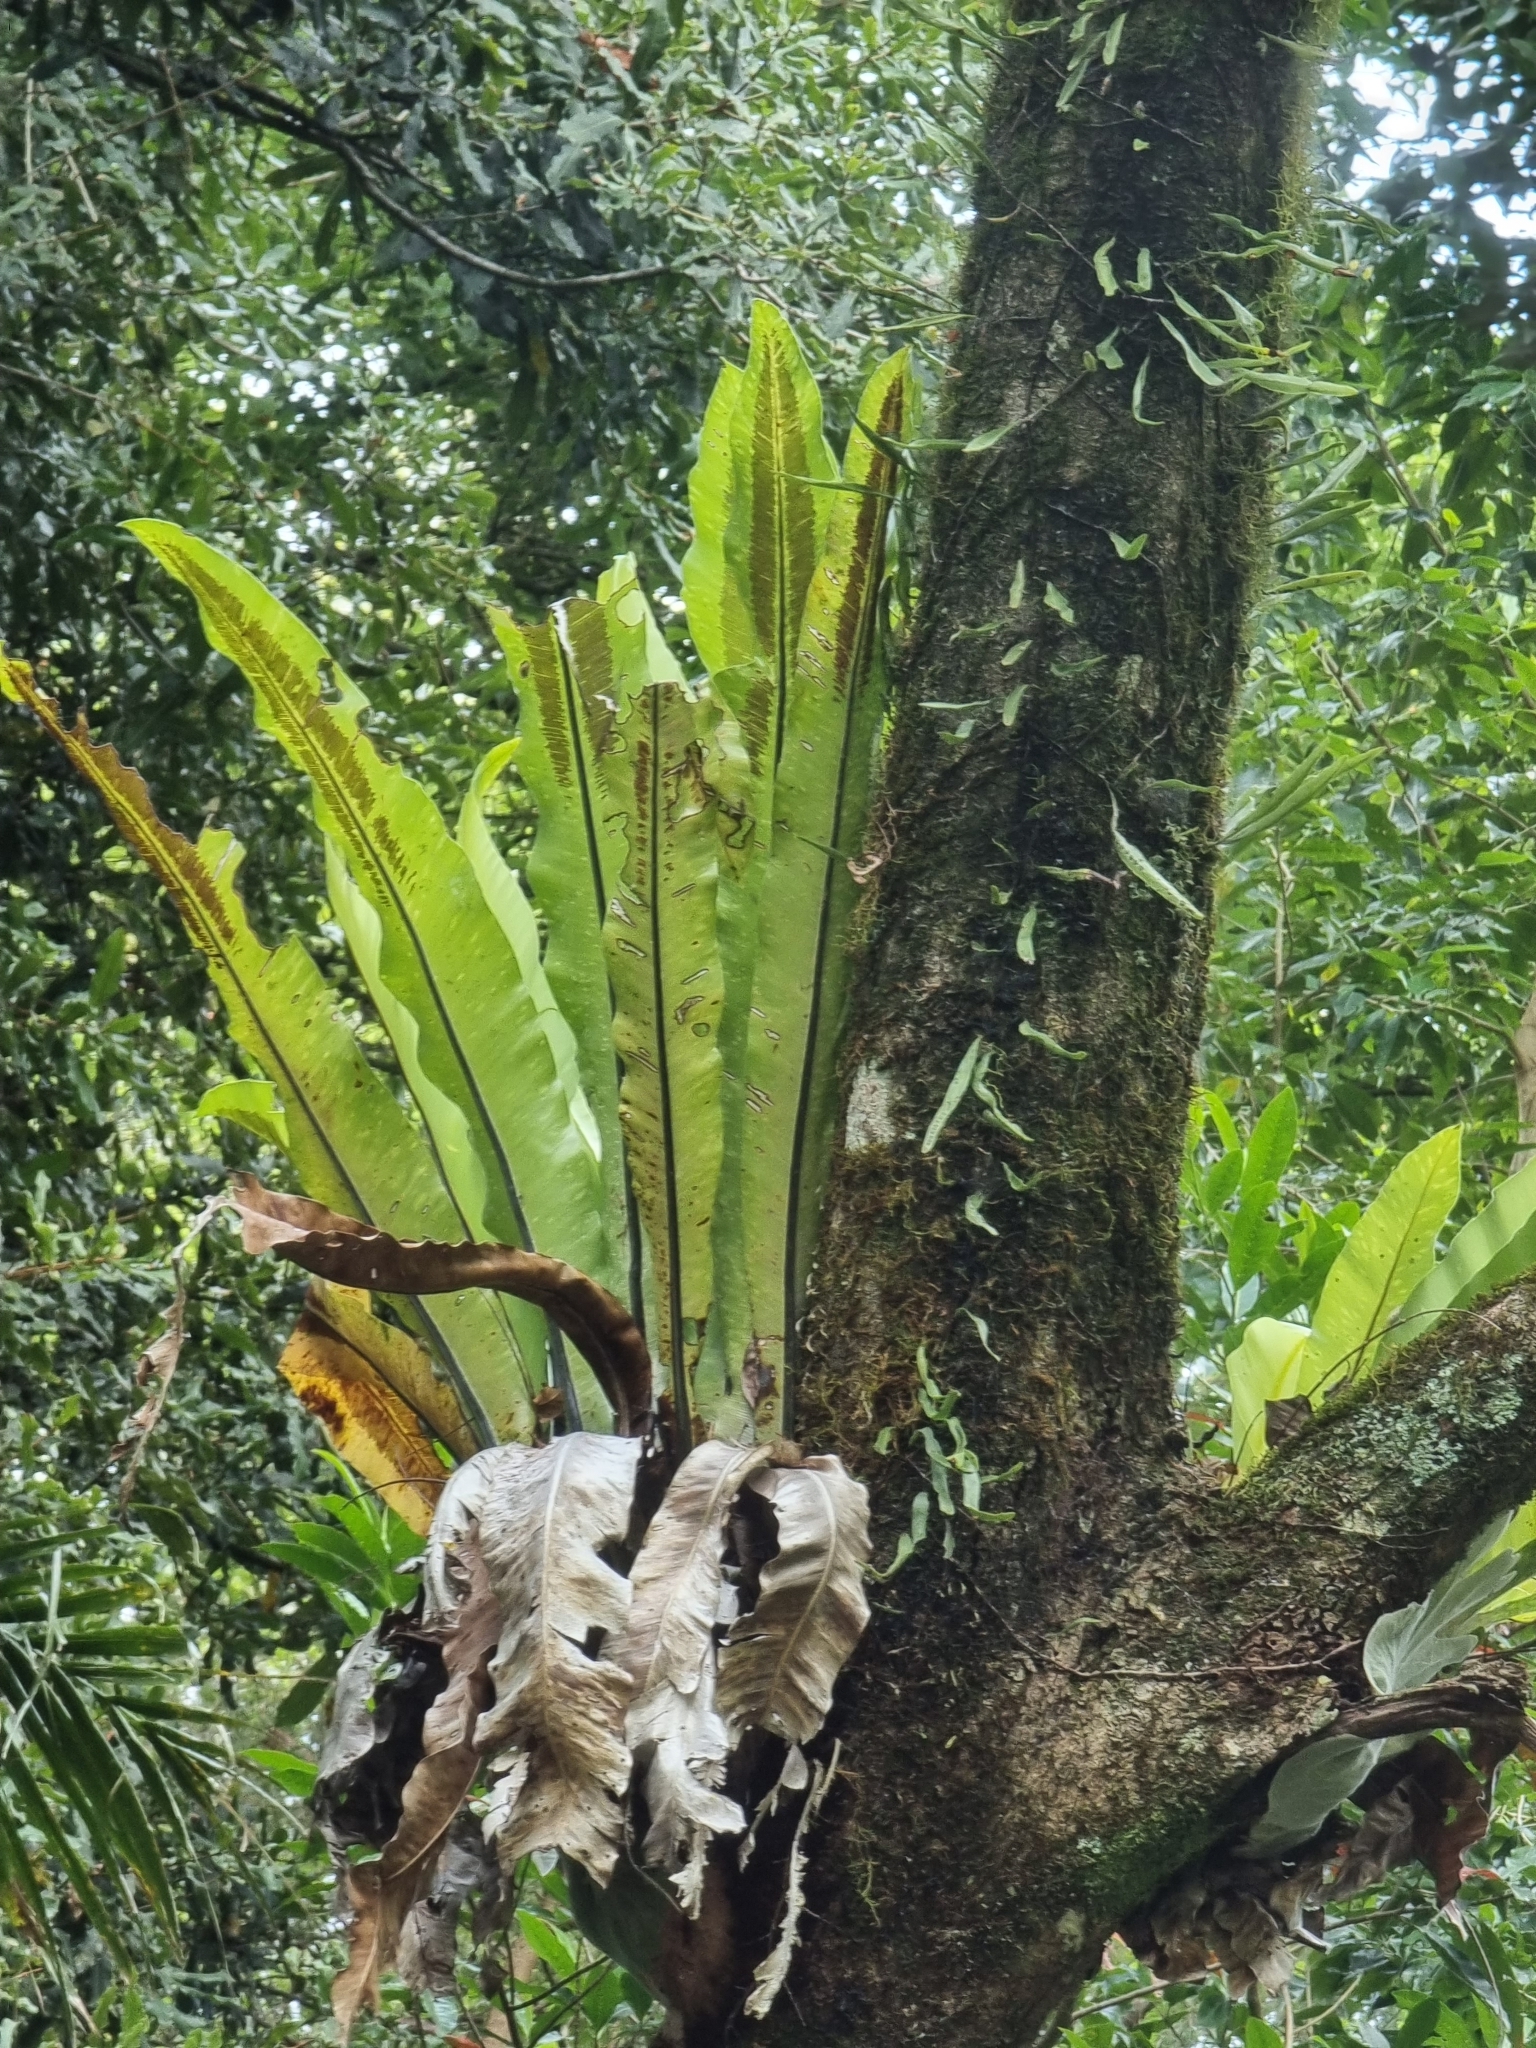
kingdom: Plantae
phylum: Tracheophyta
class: Polypodiopsida
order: Polypodiales
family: Aspleniaceae
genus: Asplenium
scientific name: Asplenium australasicum
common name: Bird's-nest fern
